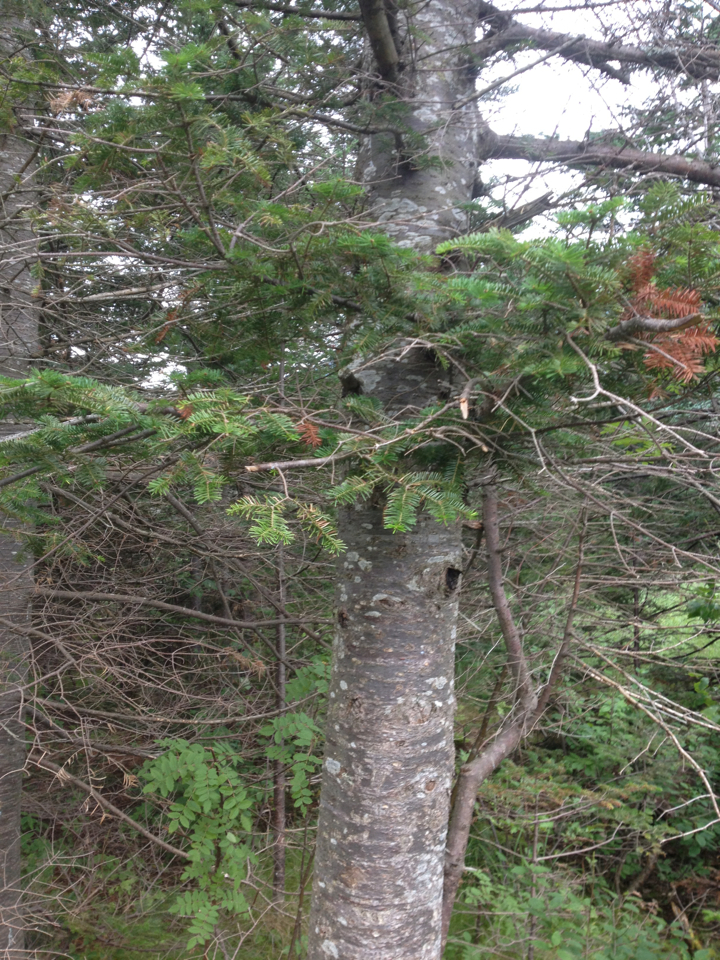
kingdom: Plantae
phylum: Tracheophyta
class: Pinopsida
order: Pinales
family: Pinaceae
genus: Abies
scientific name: Abies balsamea
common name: Balsam fir
